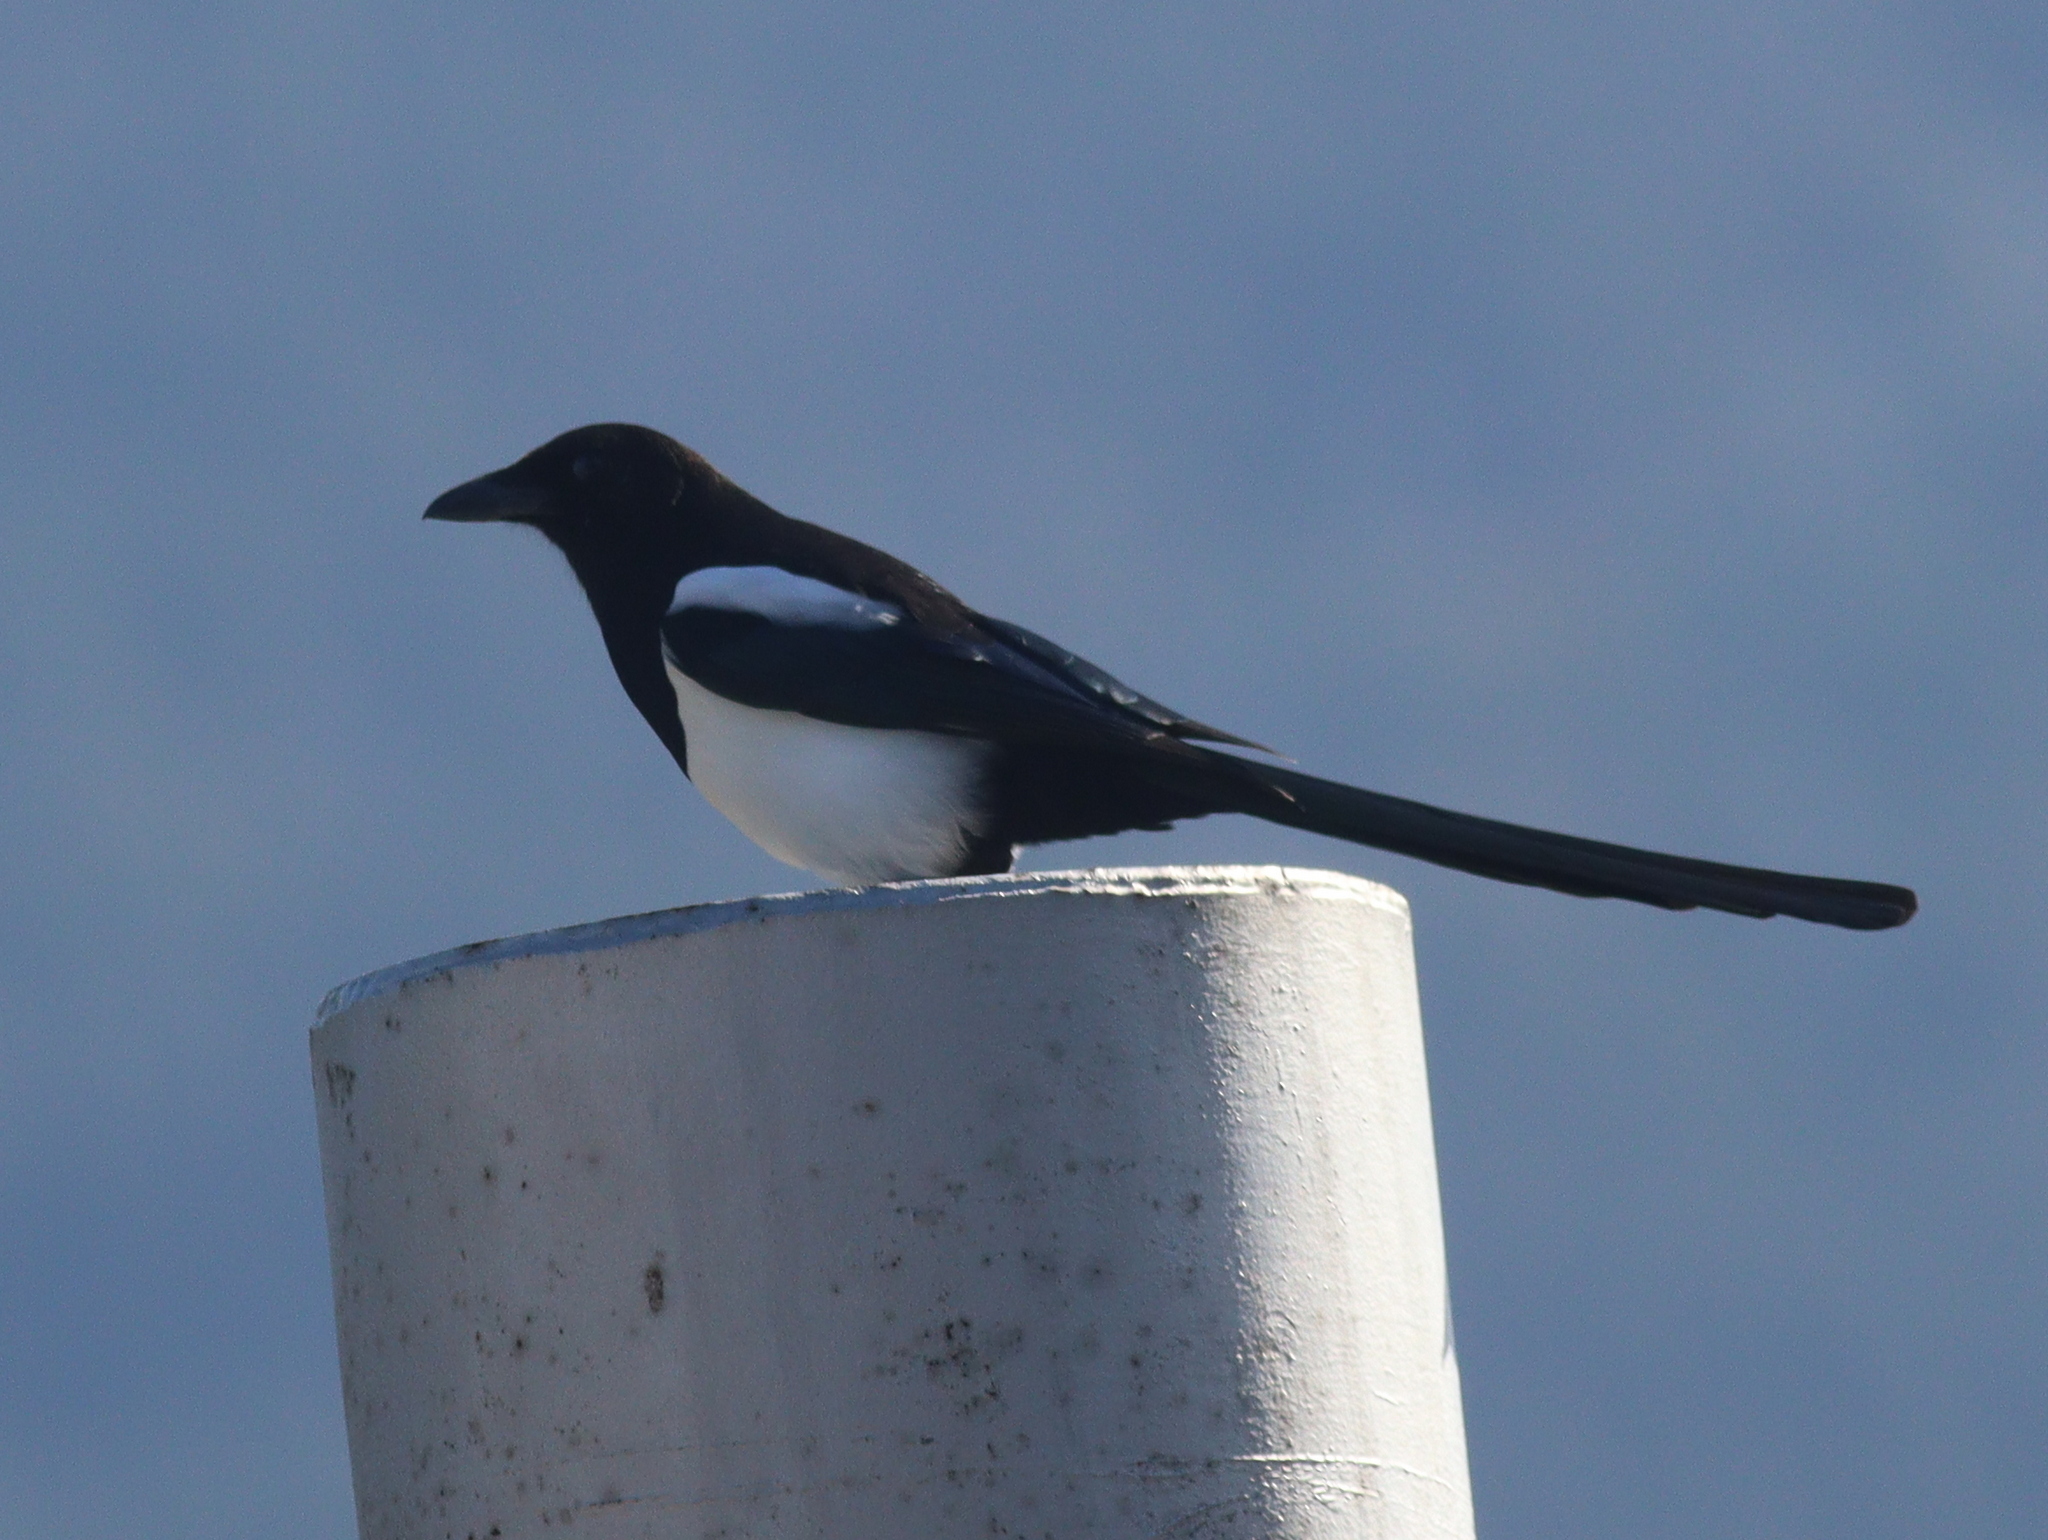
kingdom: Animalia
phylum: Chordata
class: Aves
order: Passeriformes
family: Corvidae
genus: Pica
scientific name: Pica pica
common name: Eurasian magpie
